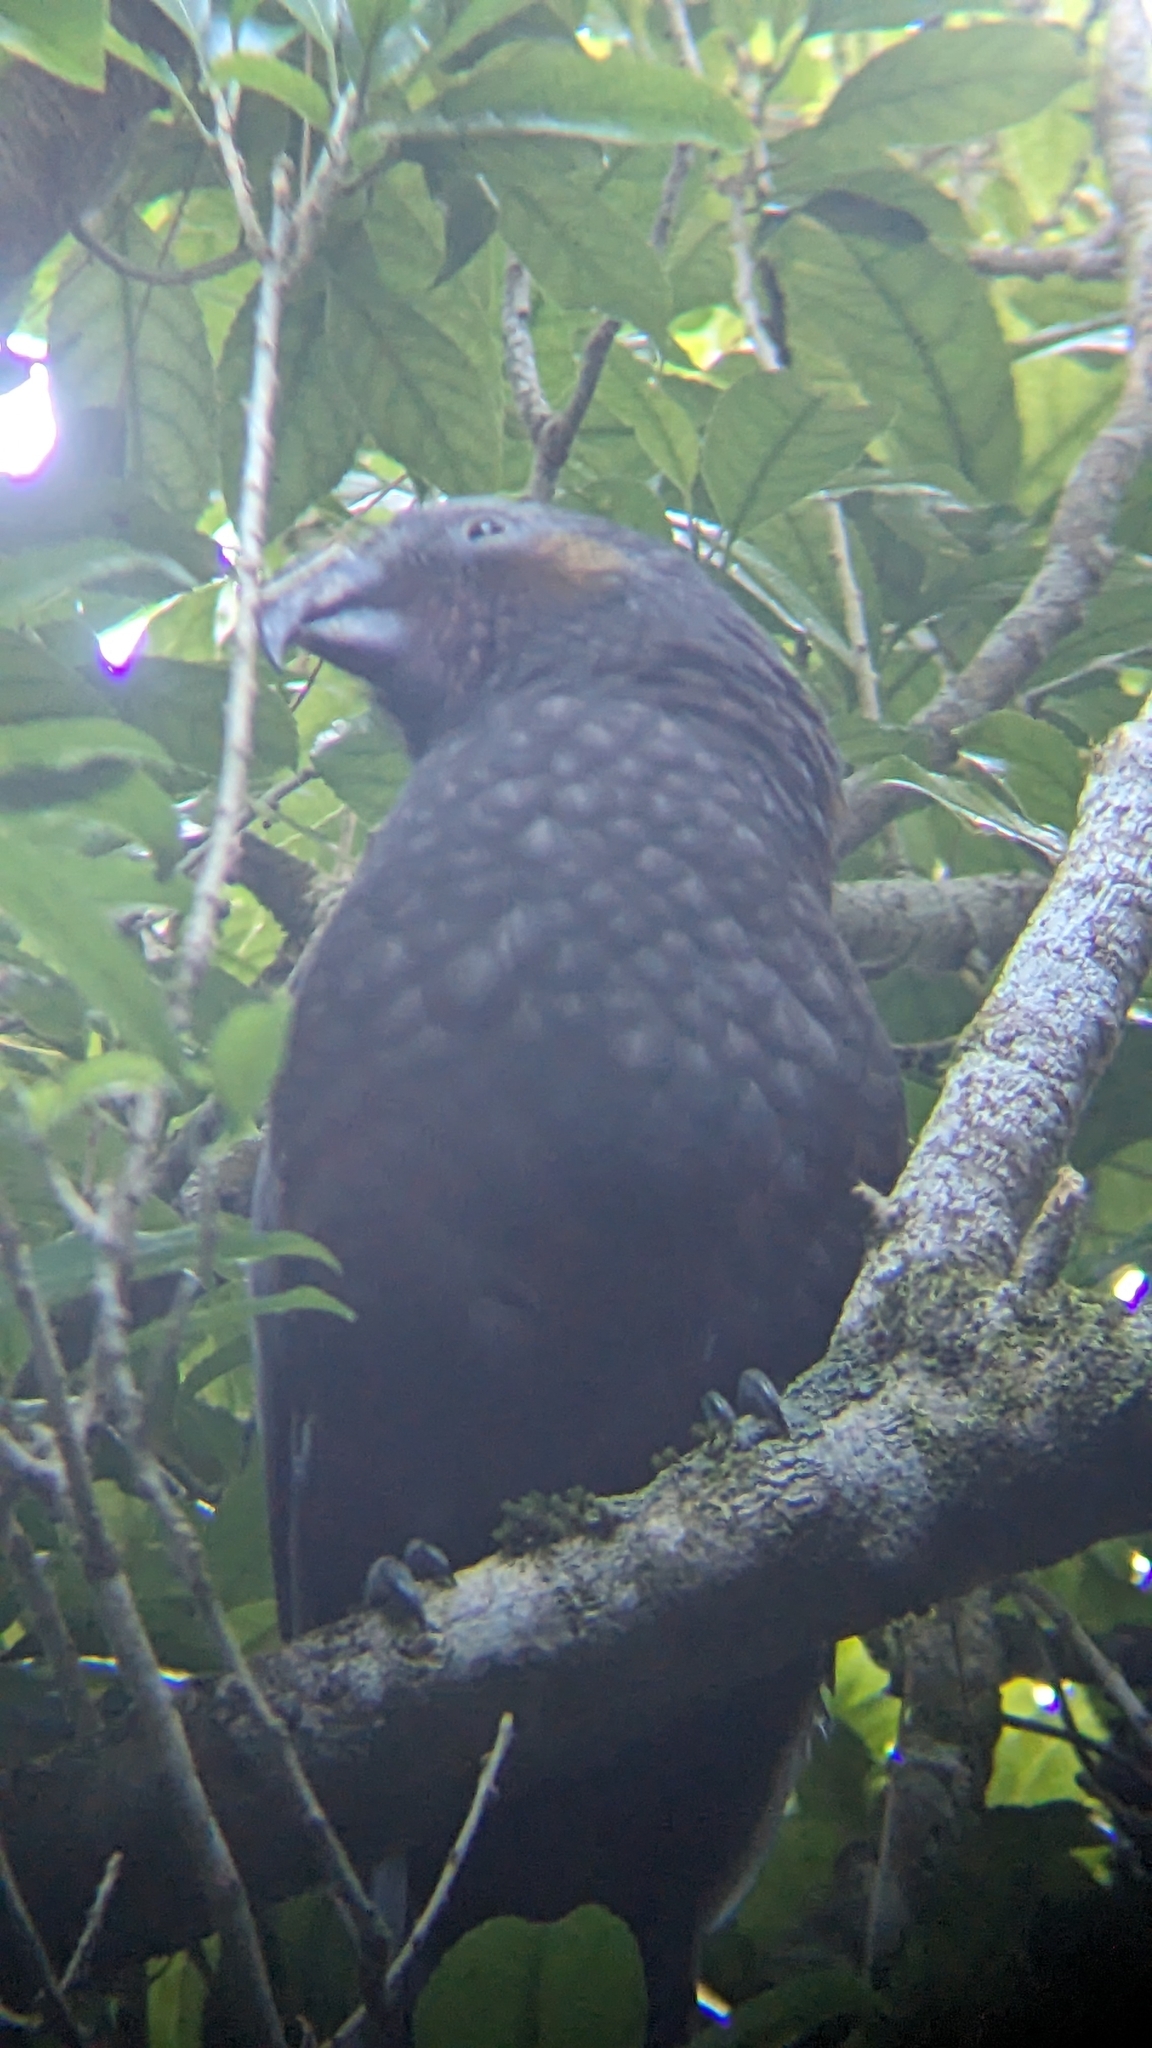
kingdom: Animalia
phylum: Chordata
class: Aves
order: Psittaciformes
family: Psittacidae
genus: Nestor
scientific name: Nestor meridionalis
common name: New zealand kaka
